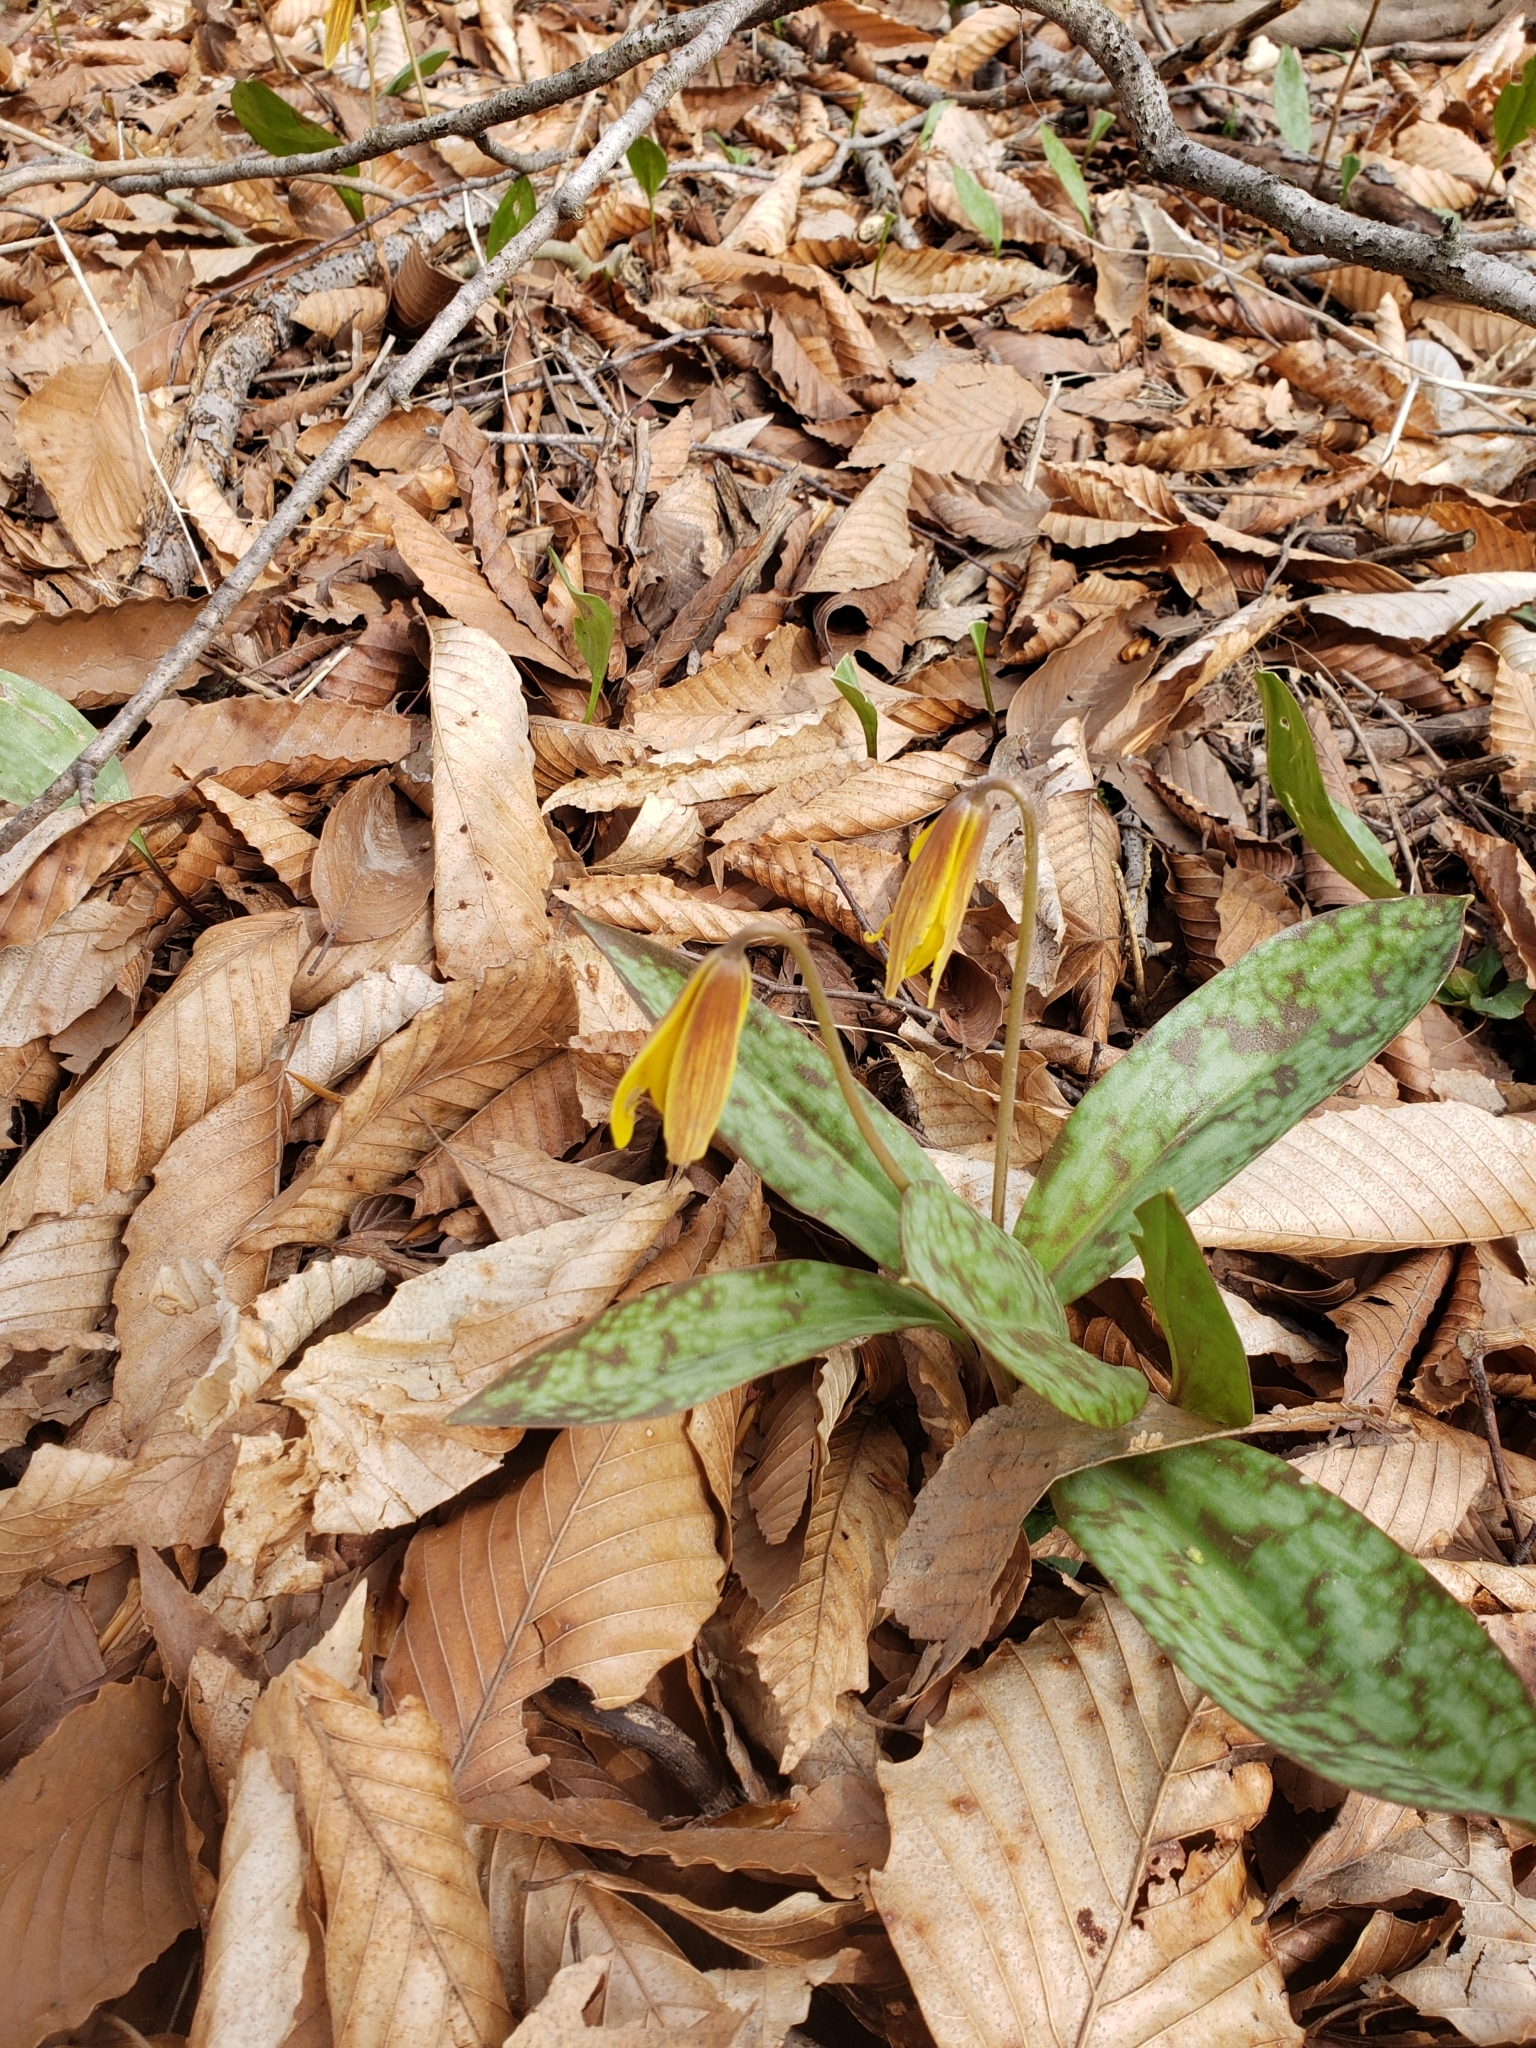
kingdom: Plantae
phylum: Tracheophyta
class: Liliopsida
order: Liliales
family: Liliaceae
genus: Erythronium
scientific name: Erythronium americanum
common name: Yellow adder's-tongue
